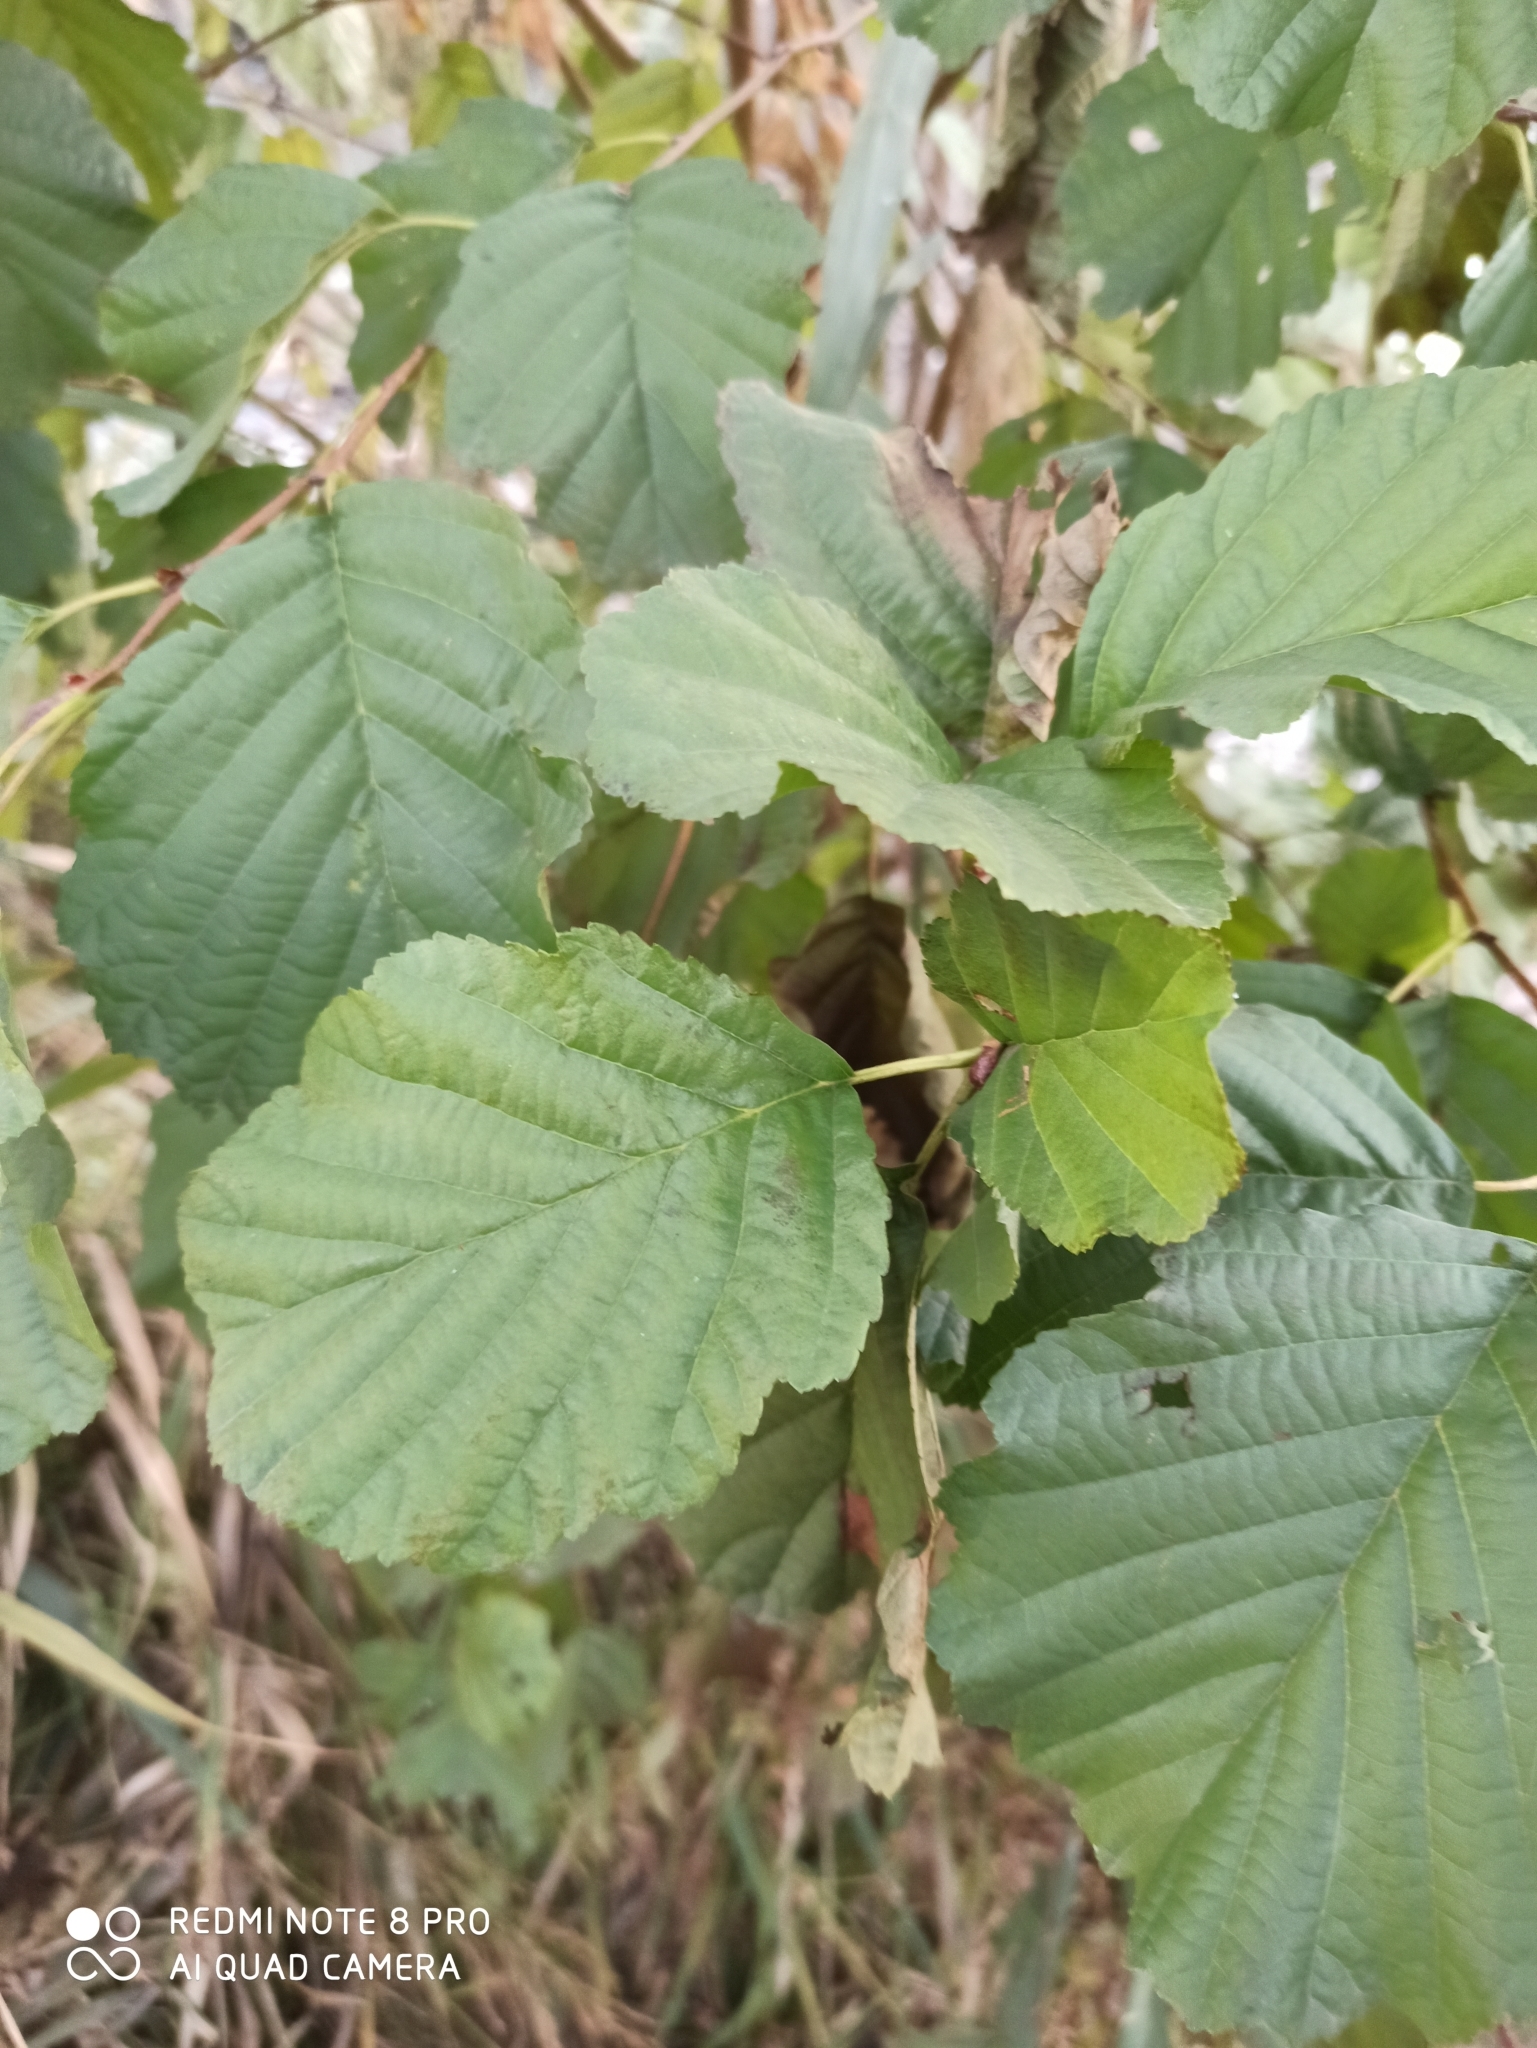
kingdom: Plantae
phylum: Tracheophyta
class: Magnoliopsida
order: Fagales
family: Betulaceae
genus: Alnus
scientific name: Alnus glutinosa
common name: Black alder
